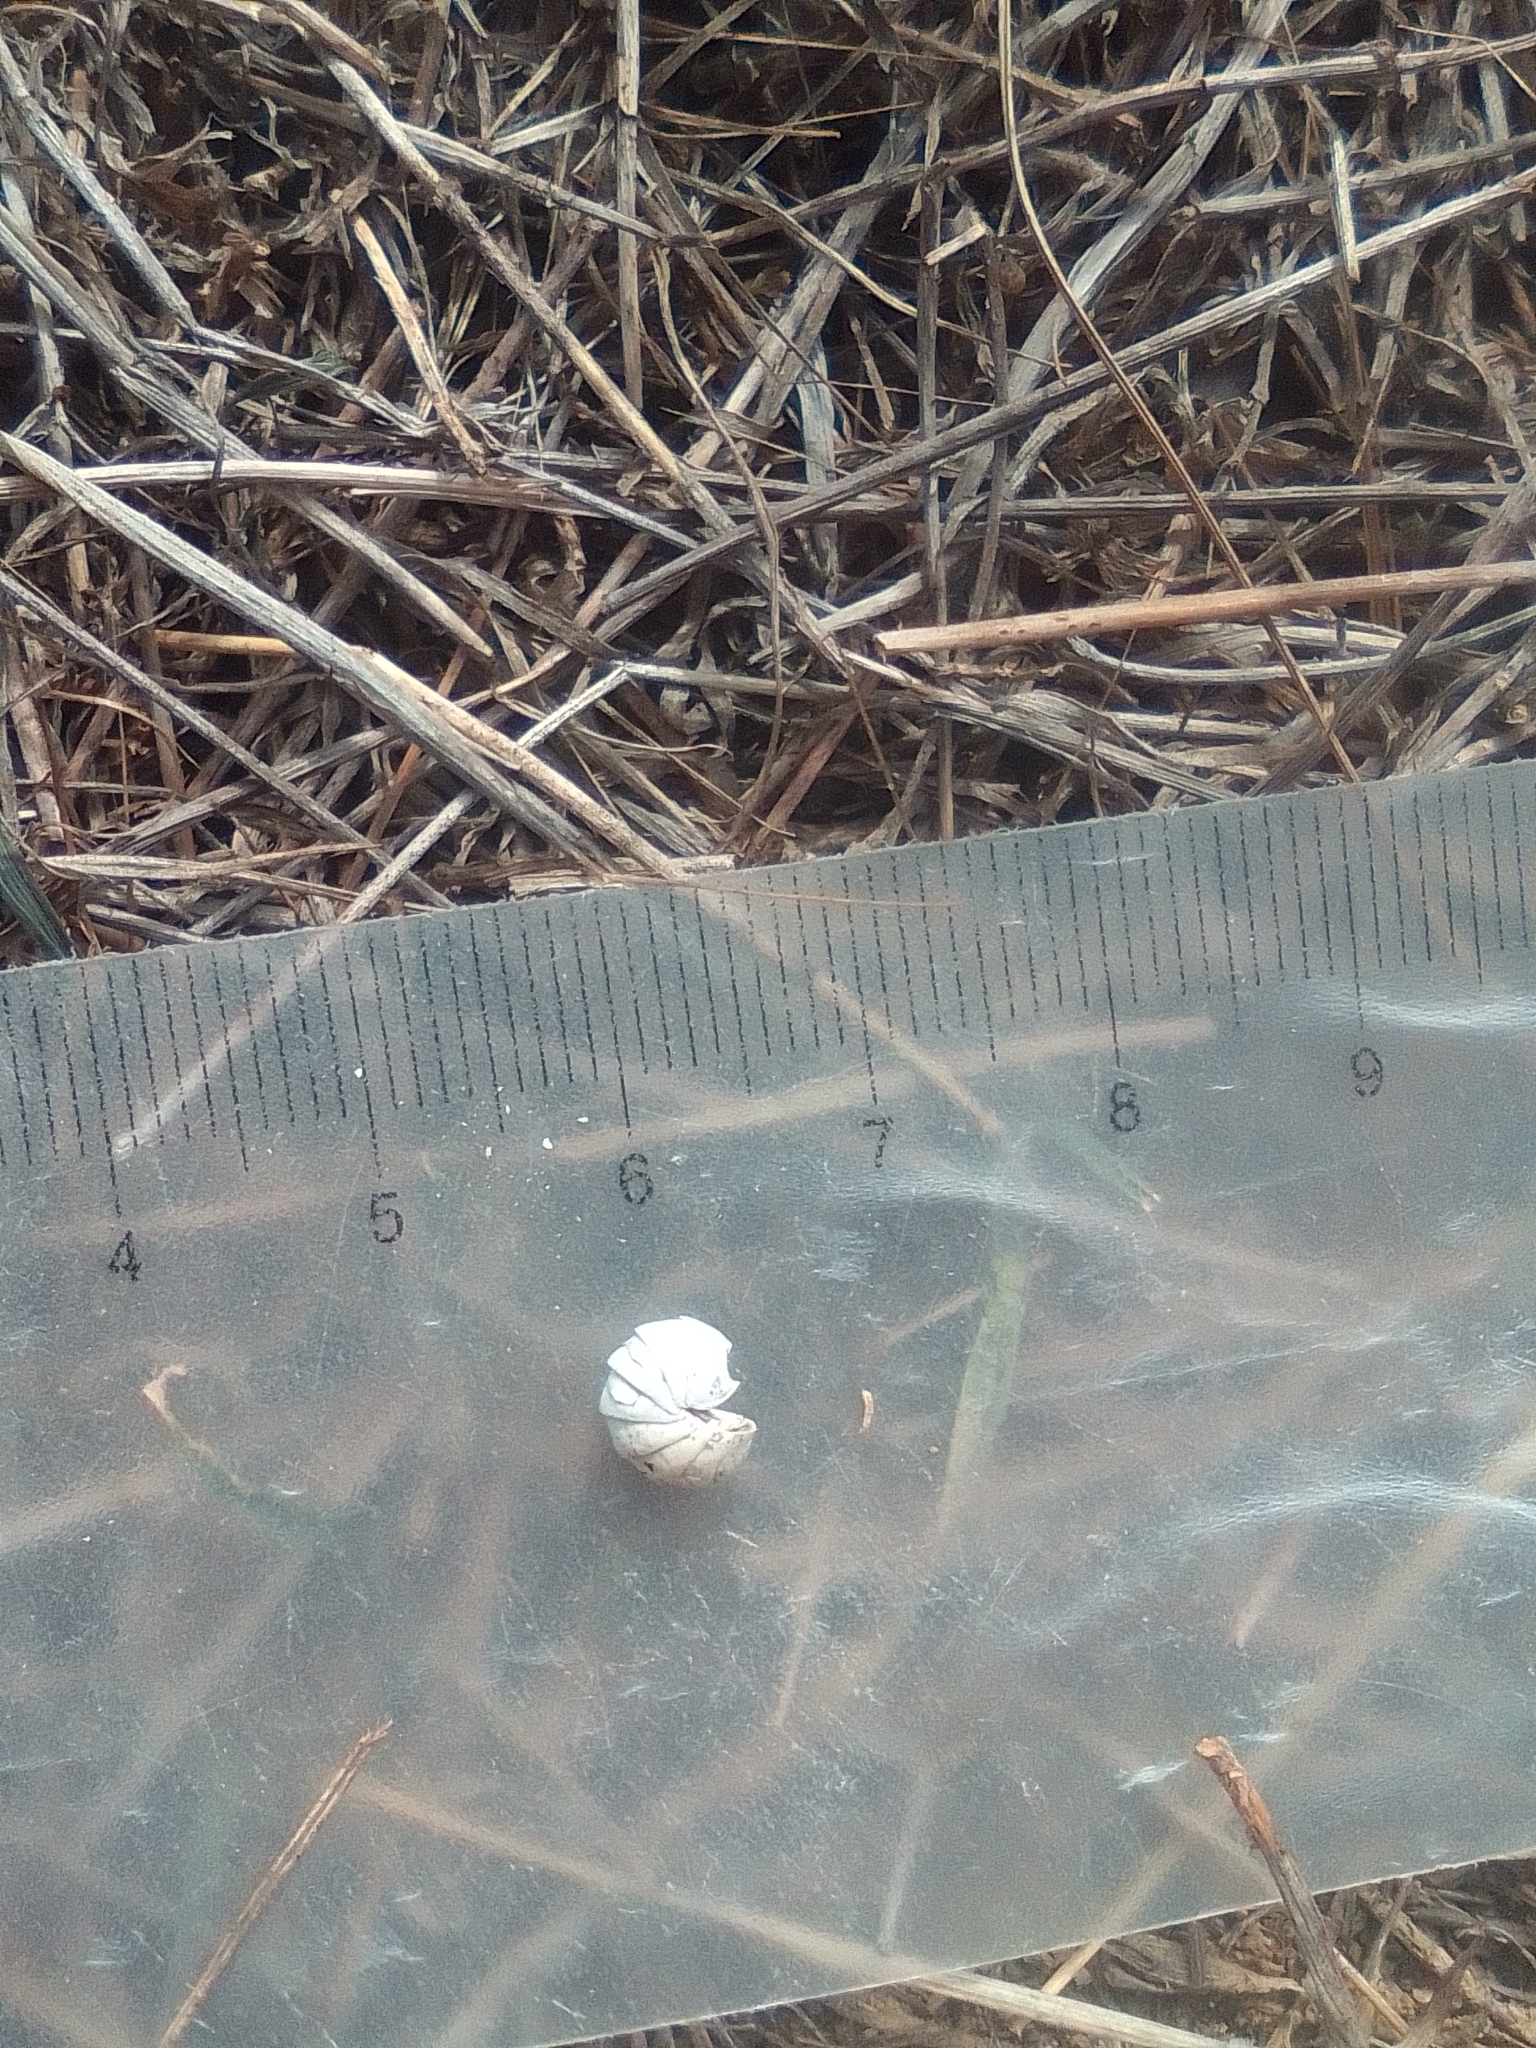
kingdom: Animalia
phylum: Arthropoda
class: Malacostraca
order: Isopoda
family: Armadillidae
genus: Armadillo
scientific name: Armadillo officinalis
